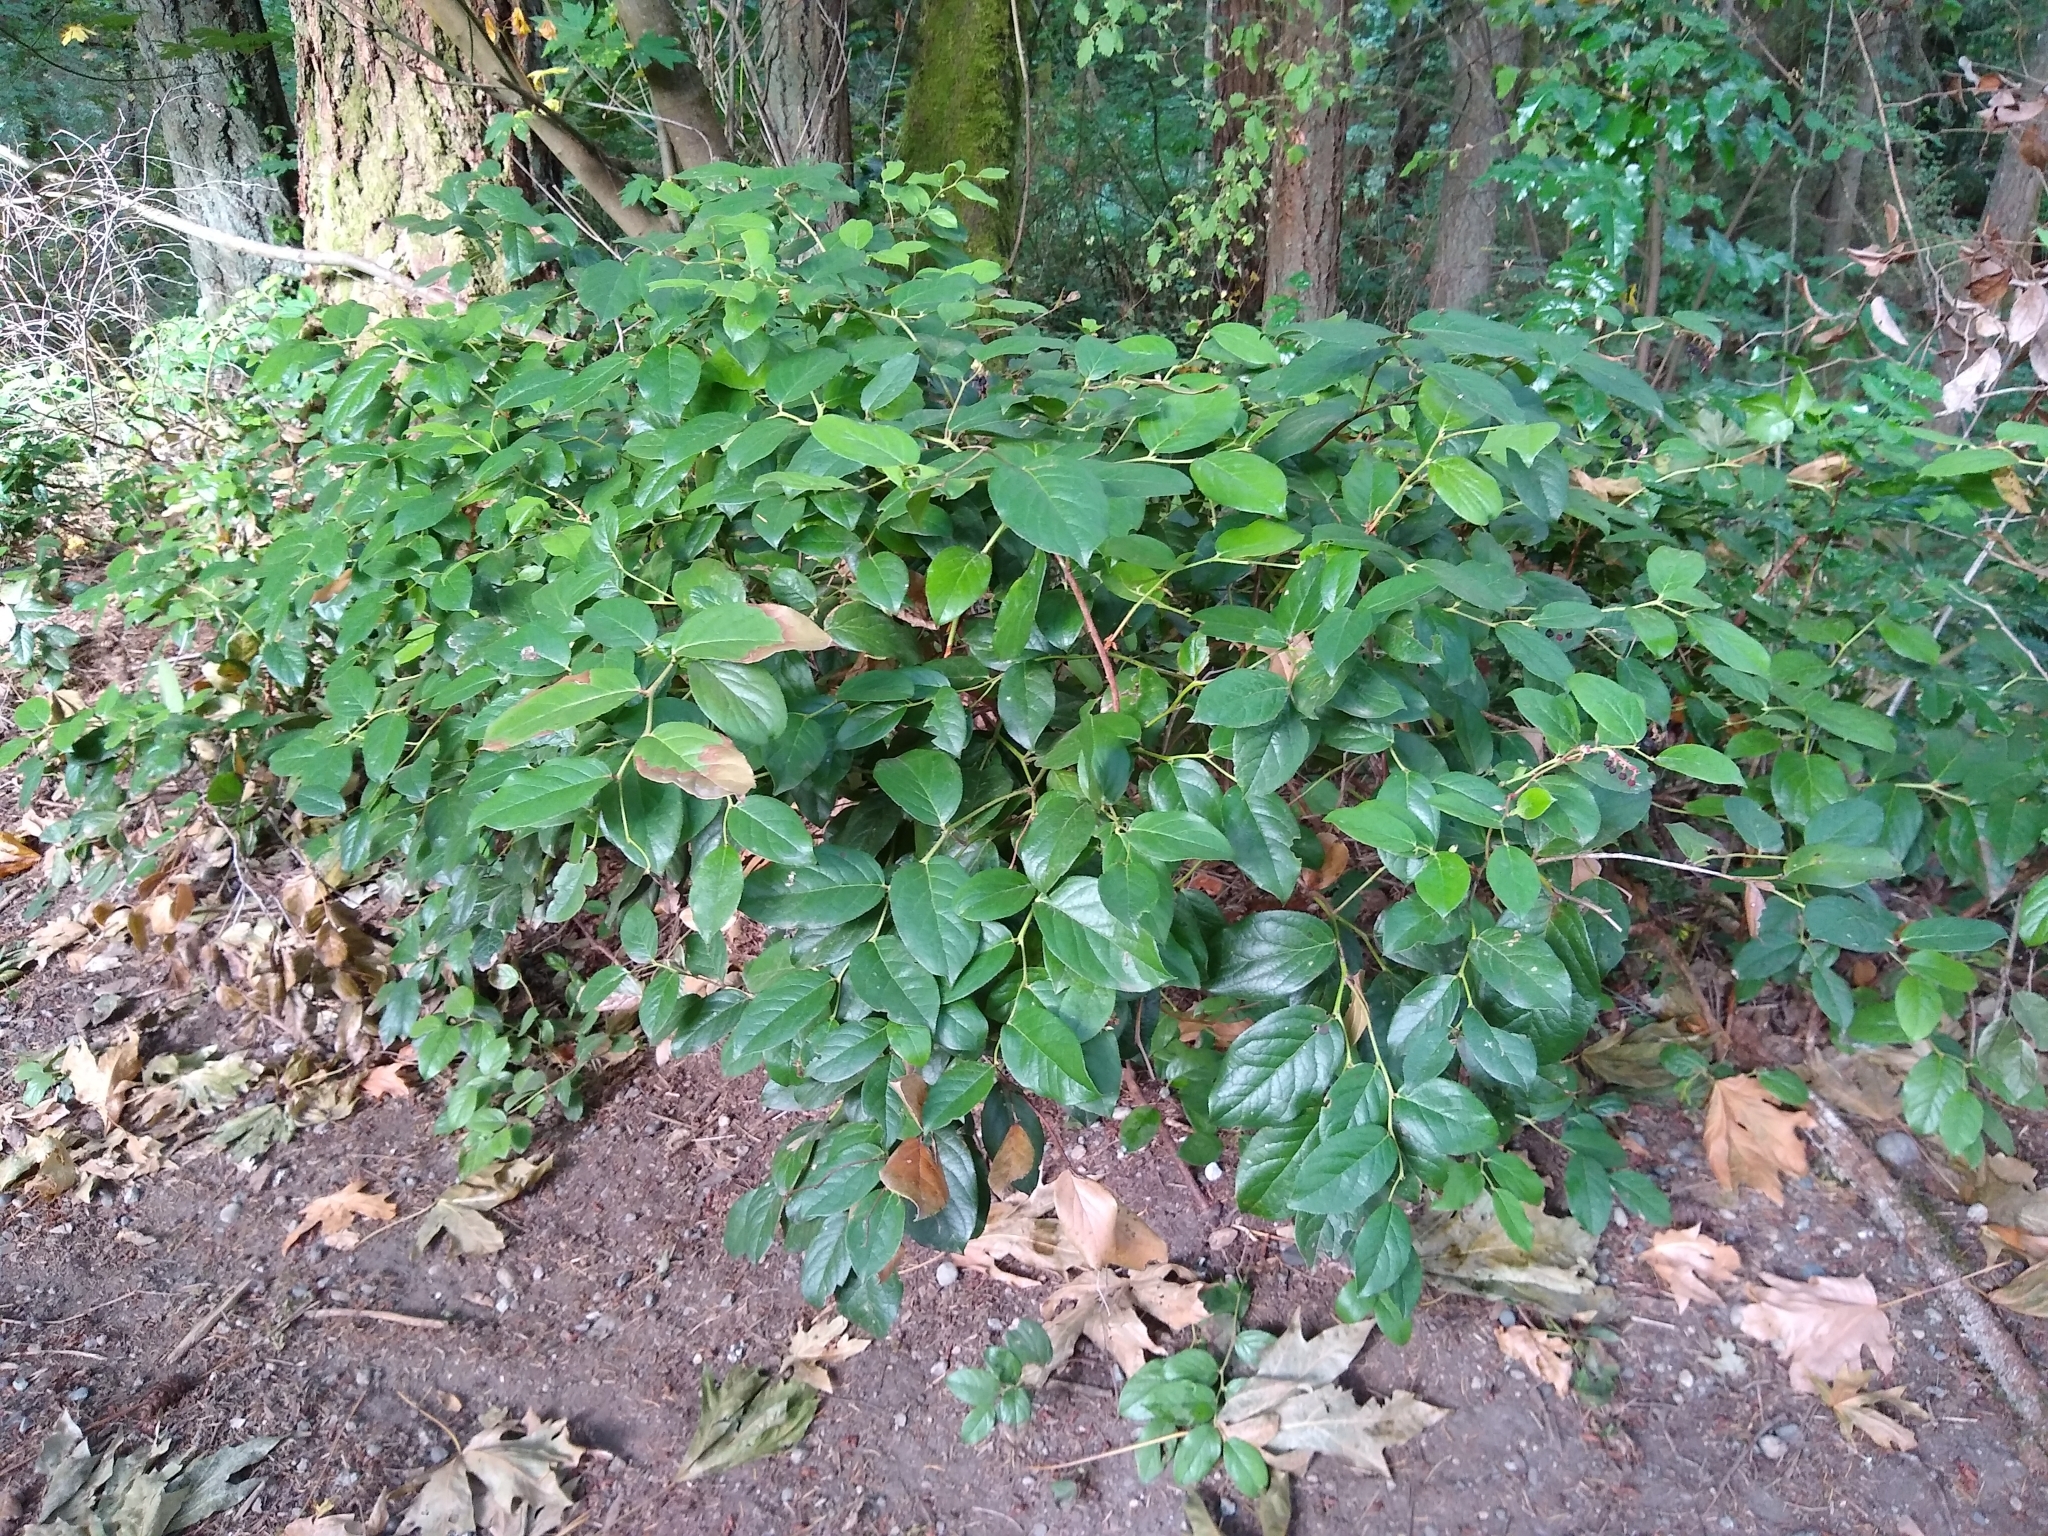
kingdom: Plantae
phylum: Tracheophyta
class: Magnoliopsida
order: Ericales
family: Ericaceae
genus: Gaultheria
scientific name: Gaultheria shallon
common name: Shallon
